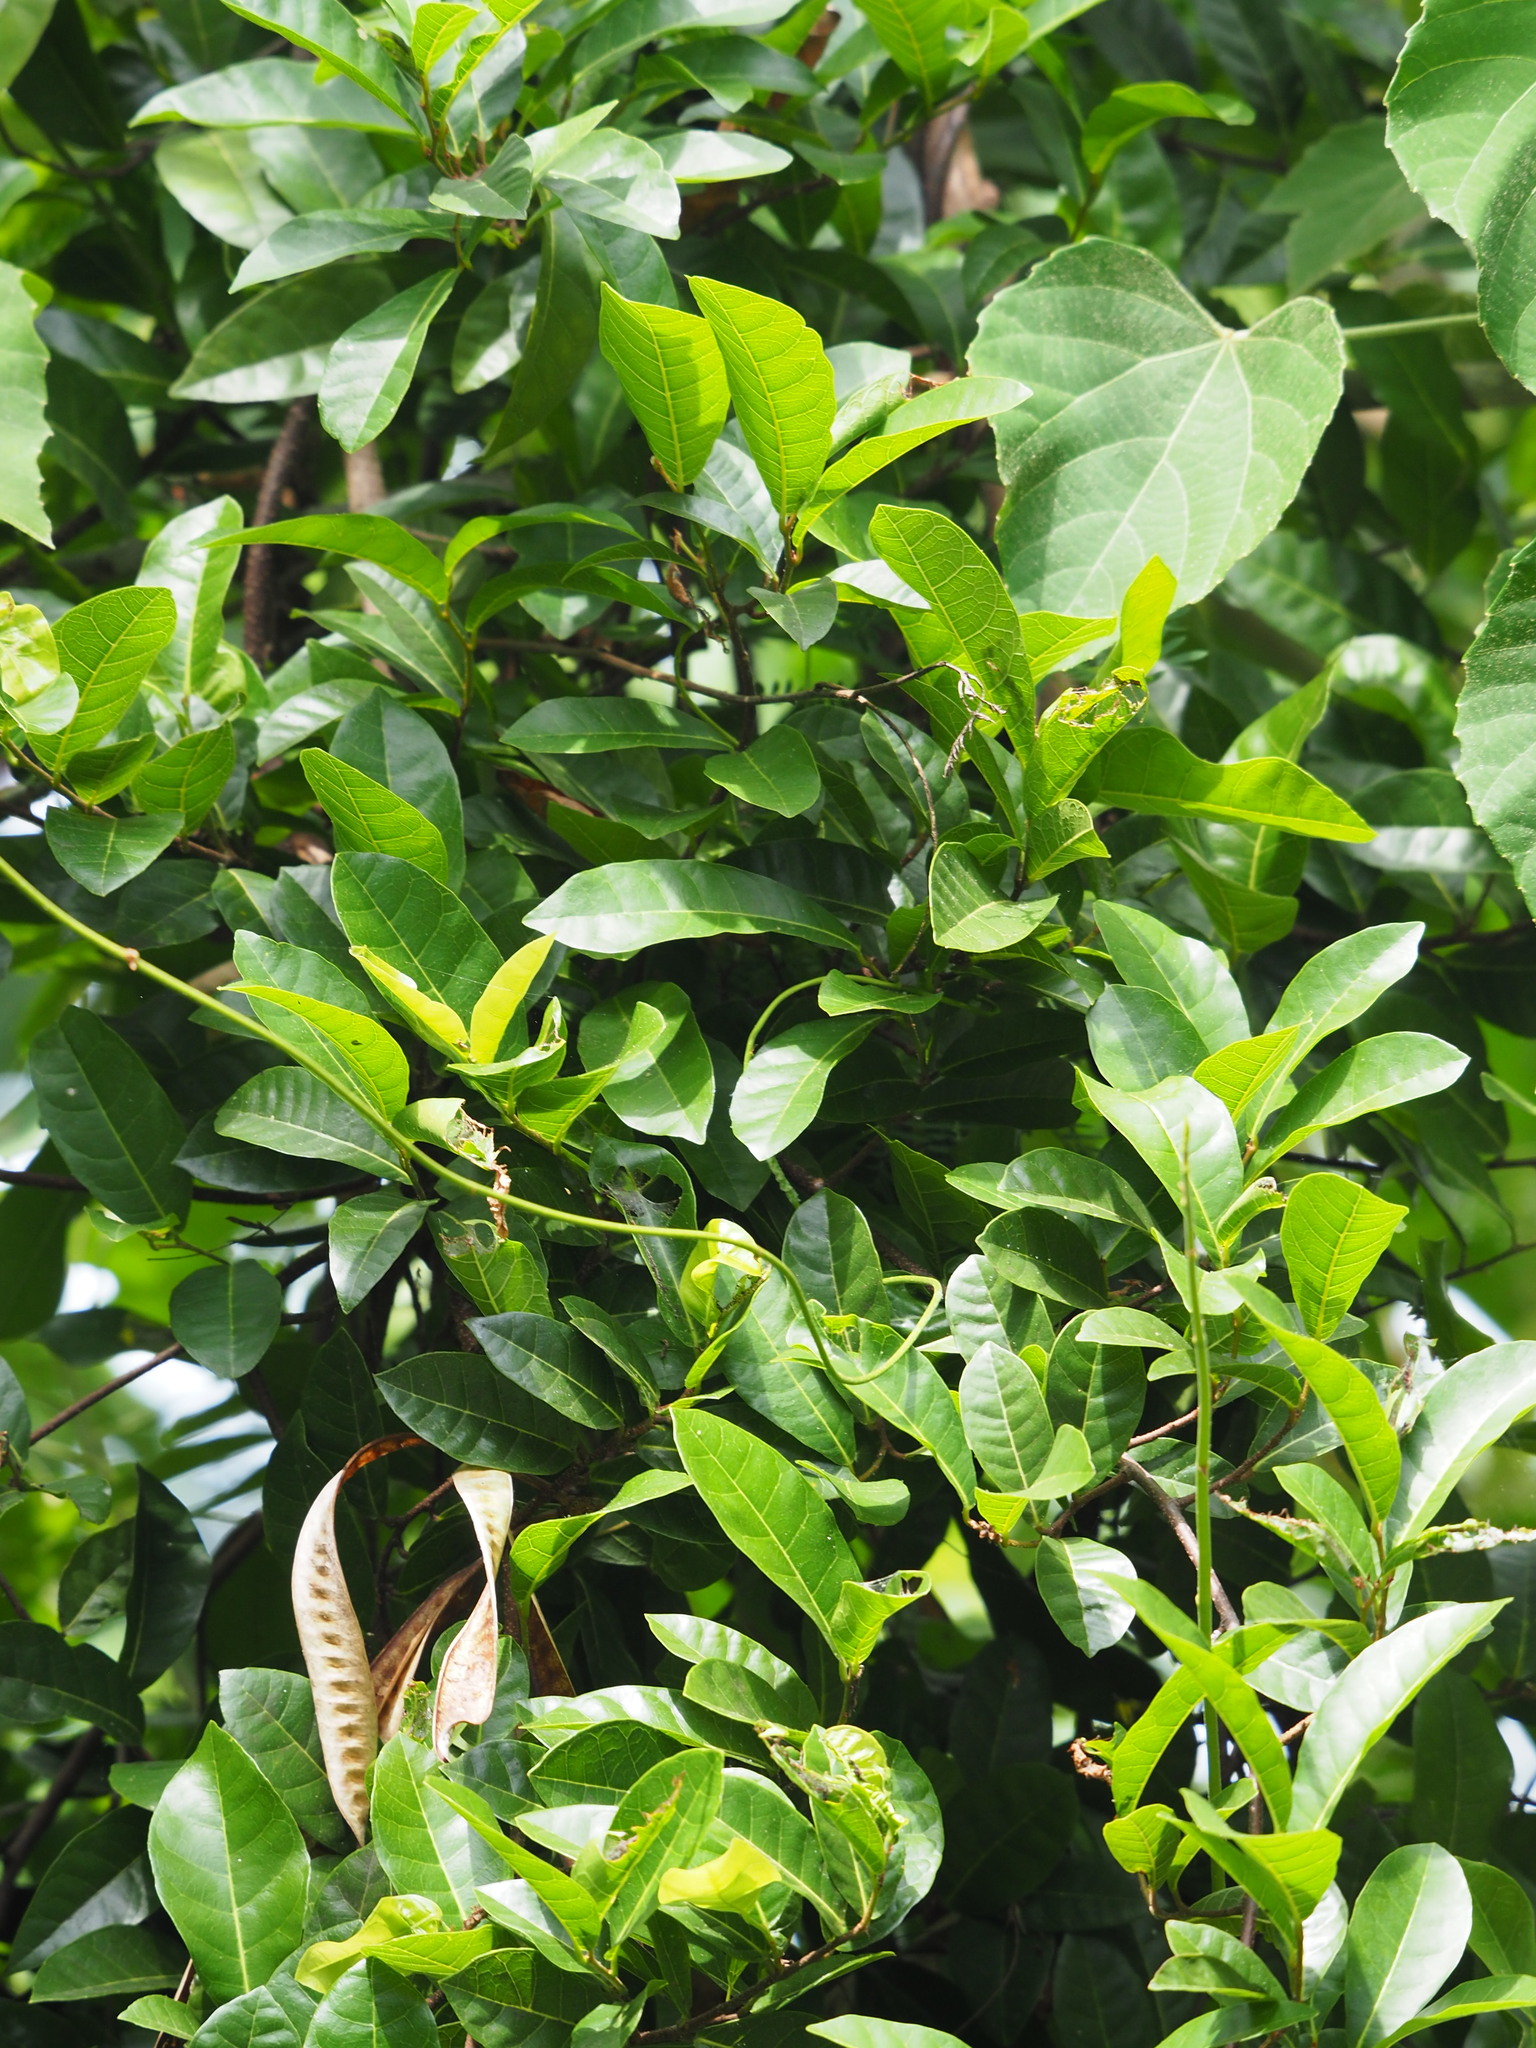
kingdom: Plantae
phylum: Tracheophyta
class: Magnoliopsida
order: Rosales
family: Moraceae
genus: Malaisia
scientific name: Malaisia scandens
